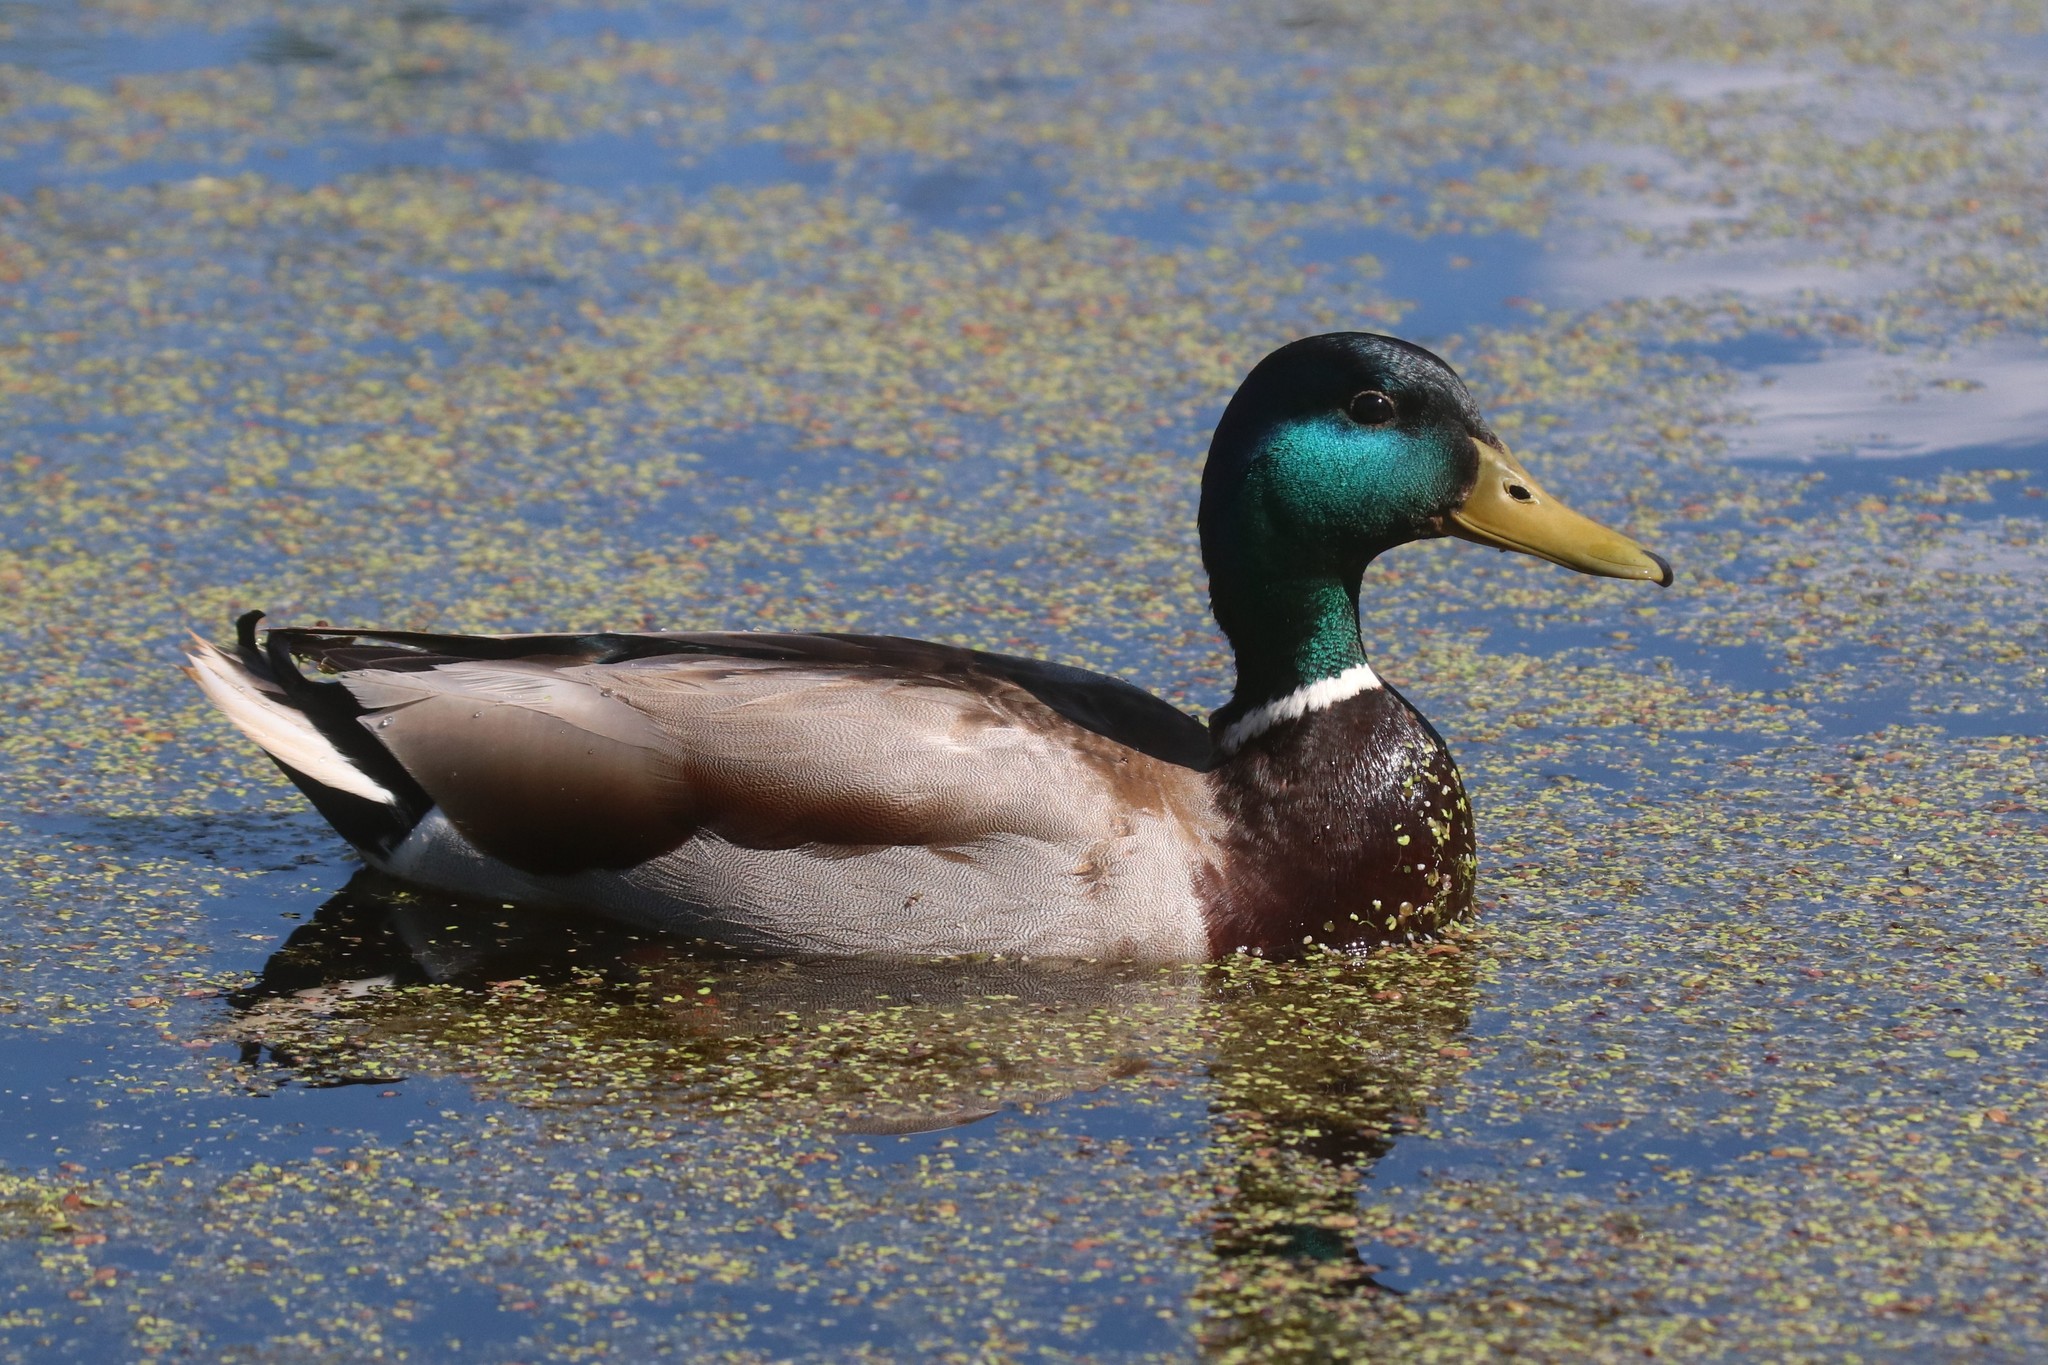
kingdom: Animalia
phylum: Chordata
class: Aves
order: Anseriformes
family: Anatidae
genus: Anas
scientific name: Anas platyrhynchos
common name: Mallard
